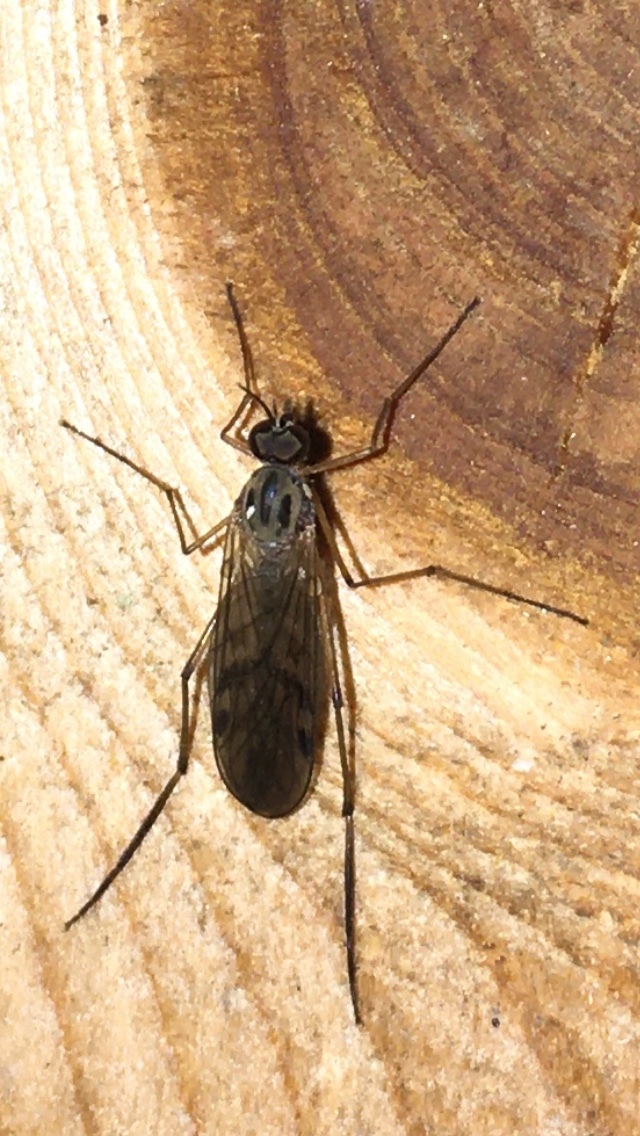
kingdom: Animalia
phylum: Arthropoda
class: Insecta
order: Diptera
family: Anisopodidae
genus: Sylvicola
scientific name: Sylvicola
